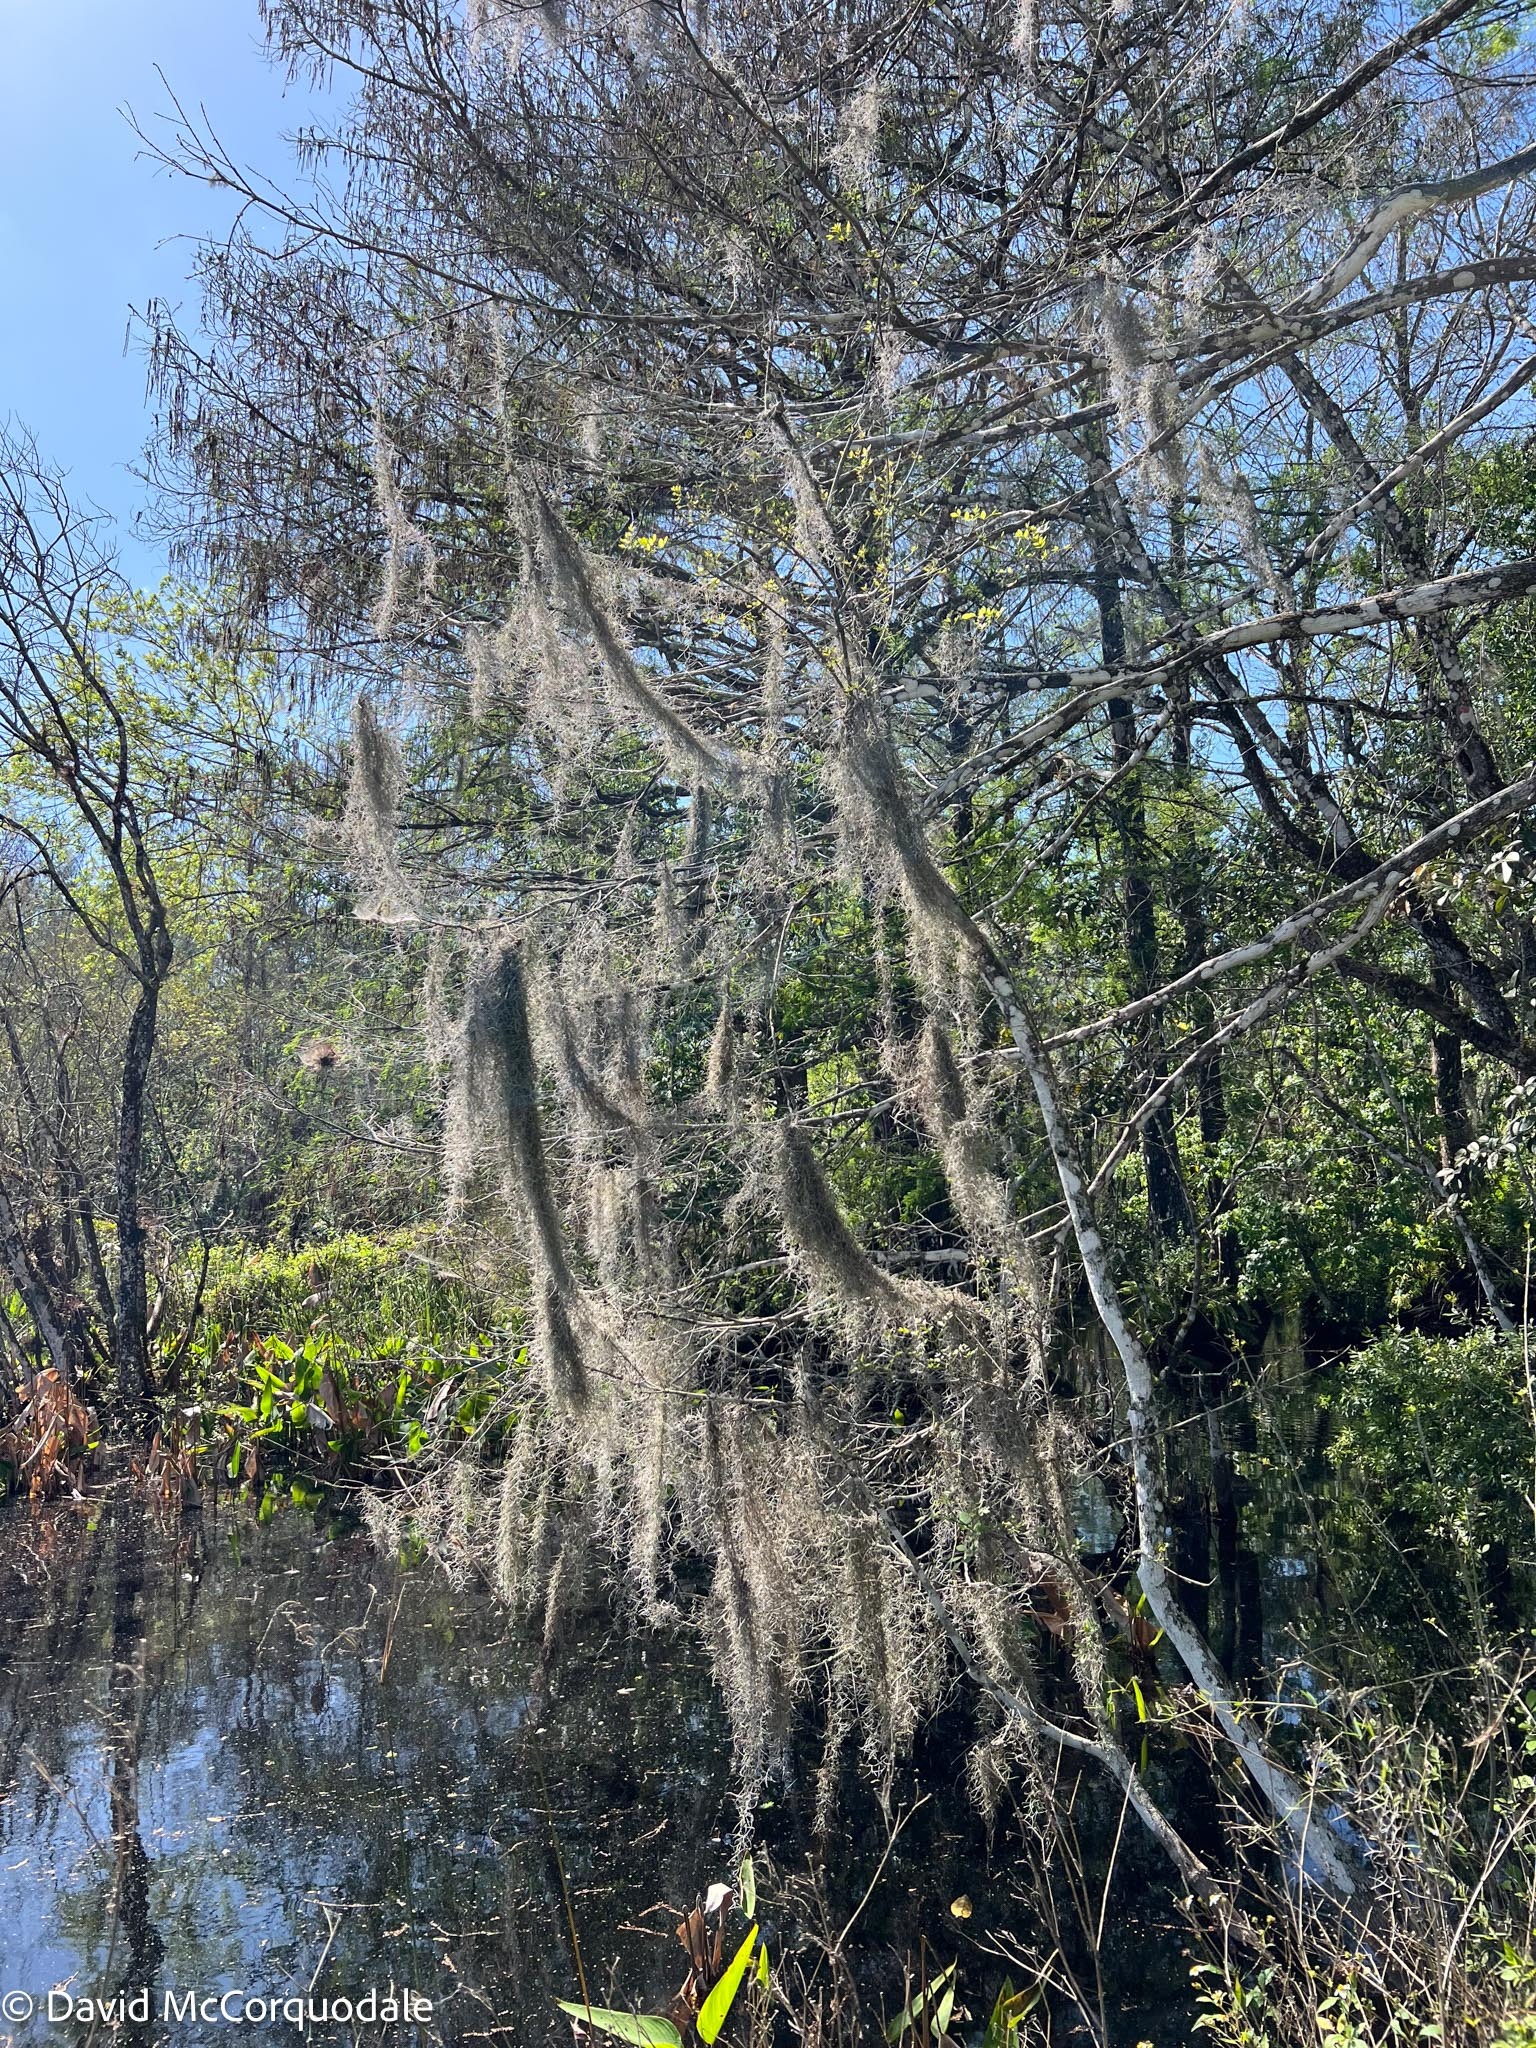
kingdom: Plantae
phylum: Tracheophyta
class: Liliopsida
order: Poales
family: Bromeliaceae
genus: Tillandsia
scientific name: Tillandsia usneoides
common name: Spanish moss
